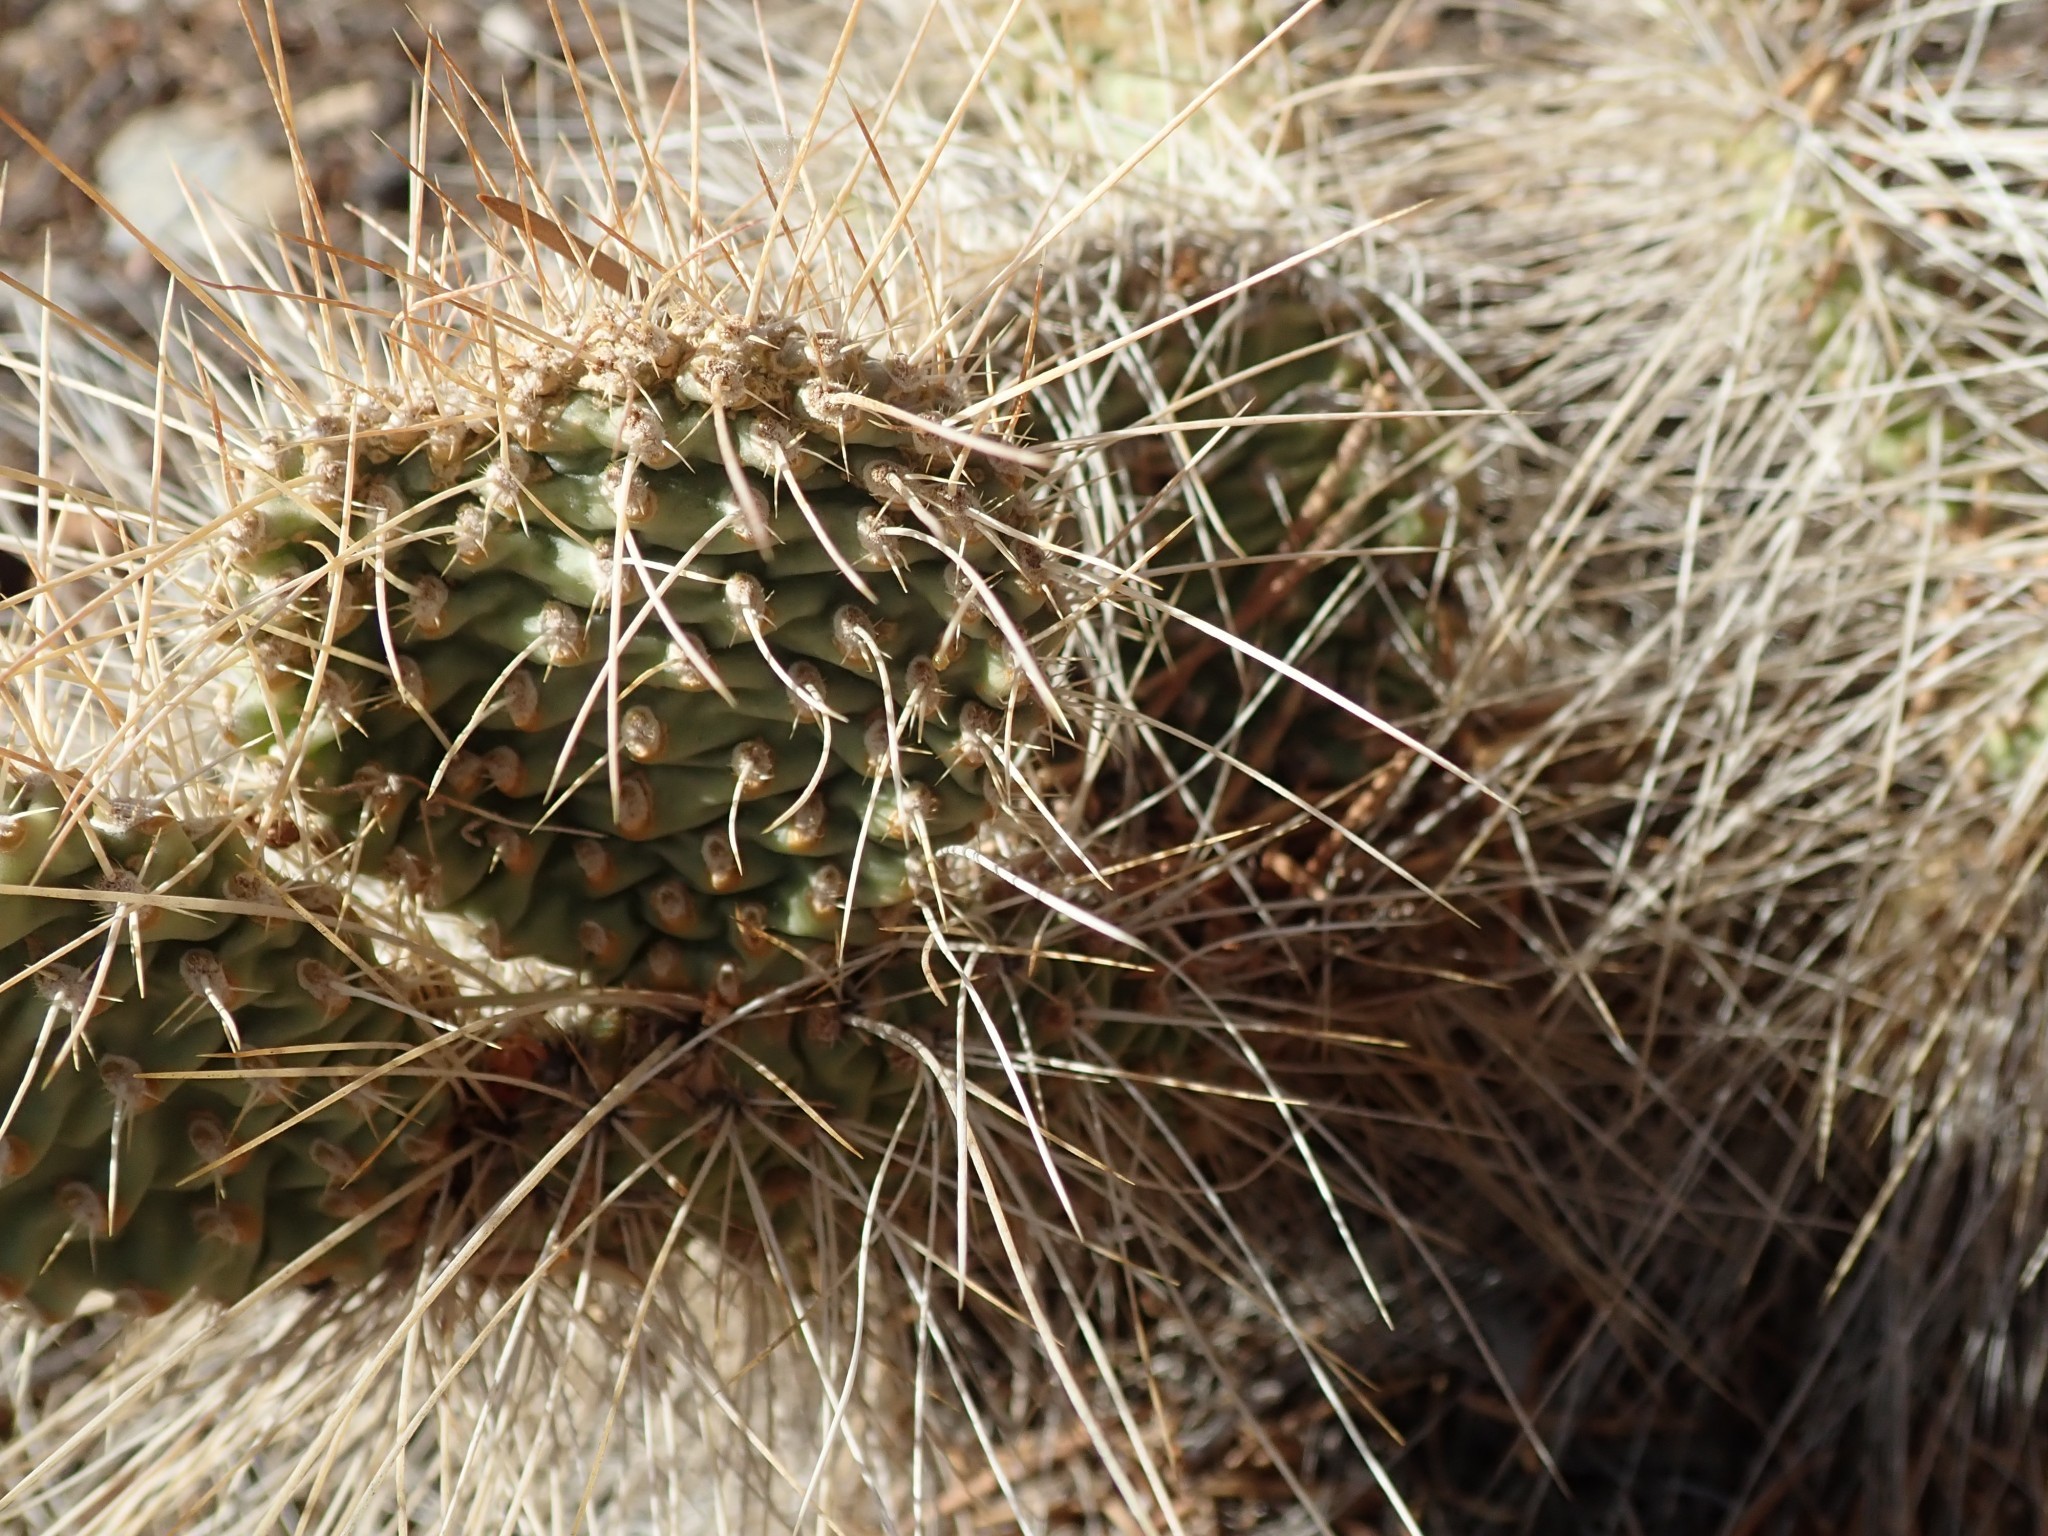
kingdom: Plantae
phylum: Tracheophyta
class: Magnoliopsida
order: Caryophyllales
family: Cactaceae
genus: Opuntia
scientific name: Opuntia polyacantha
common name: Plains prickly-pear
